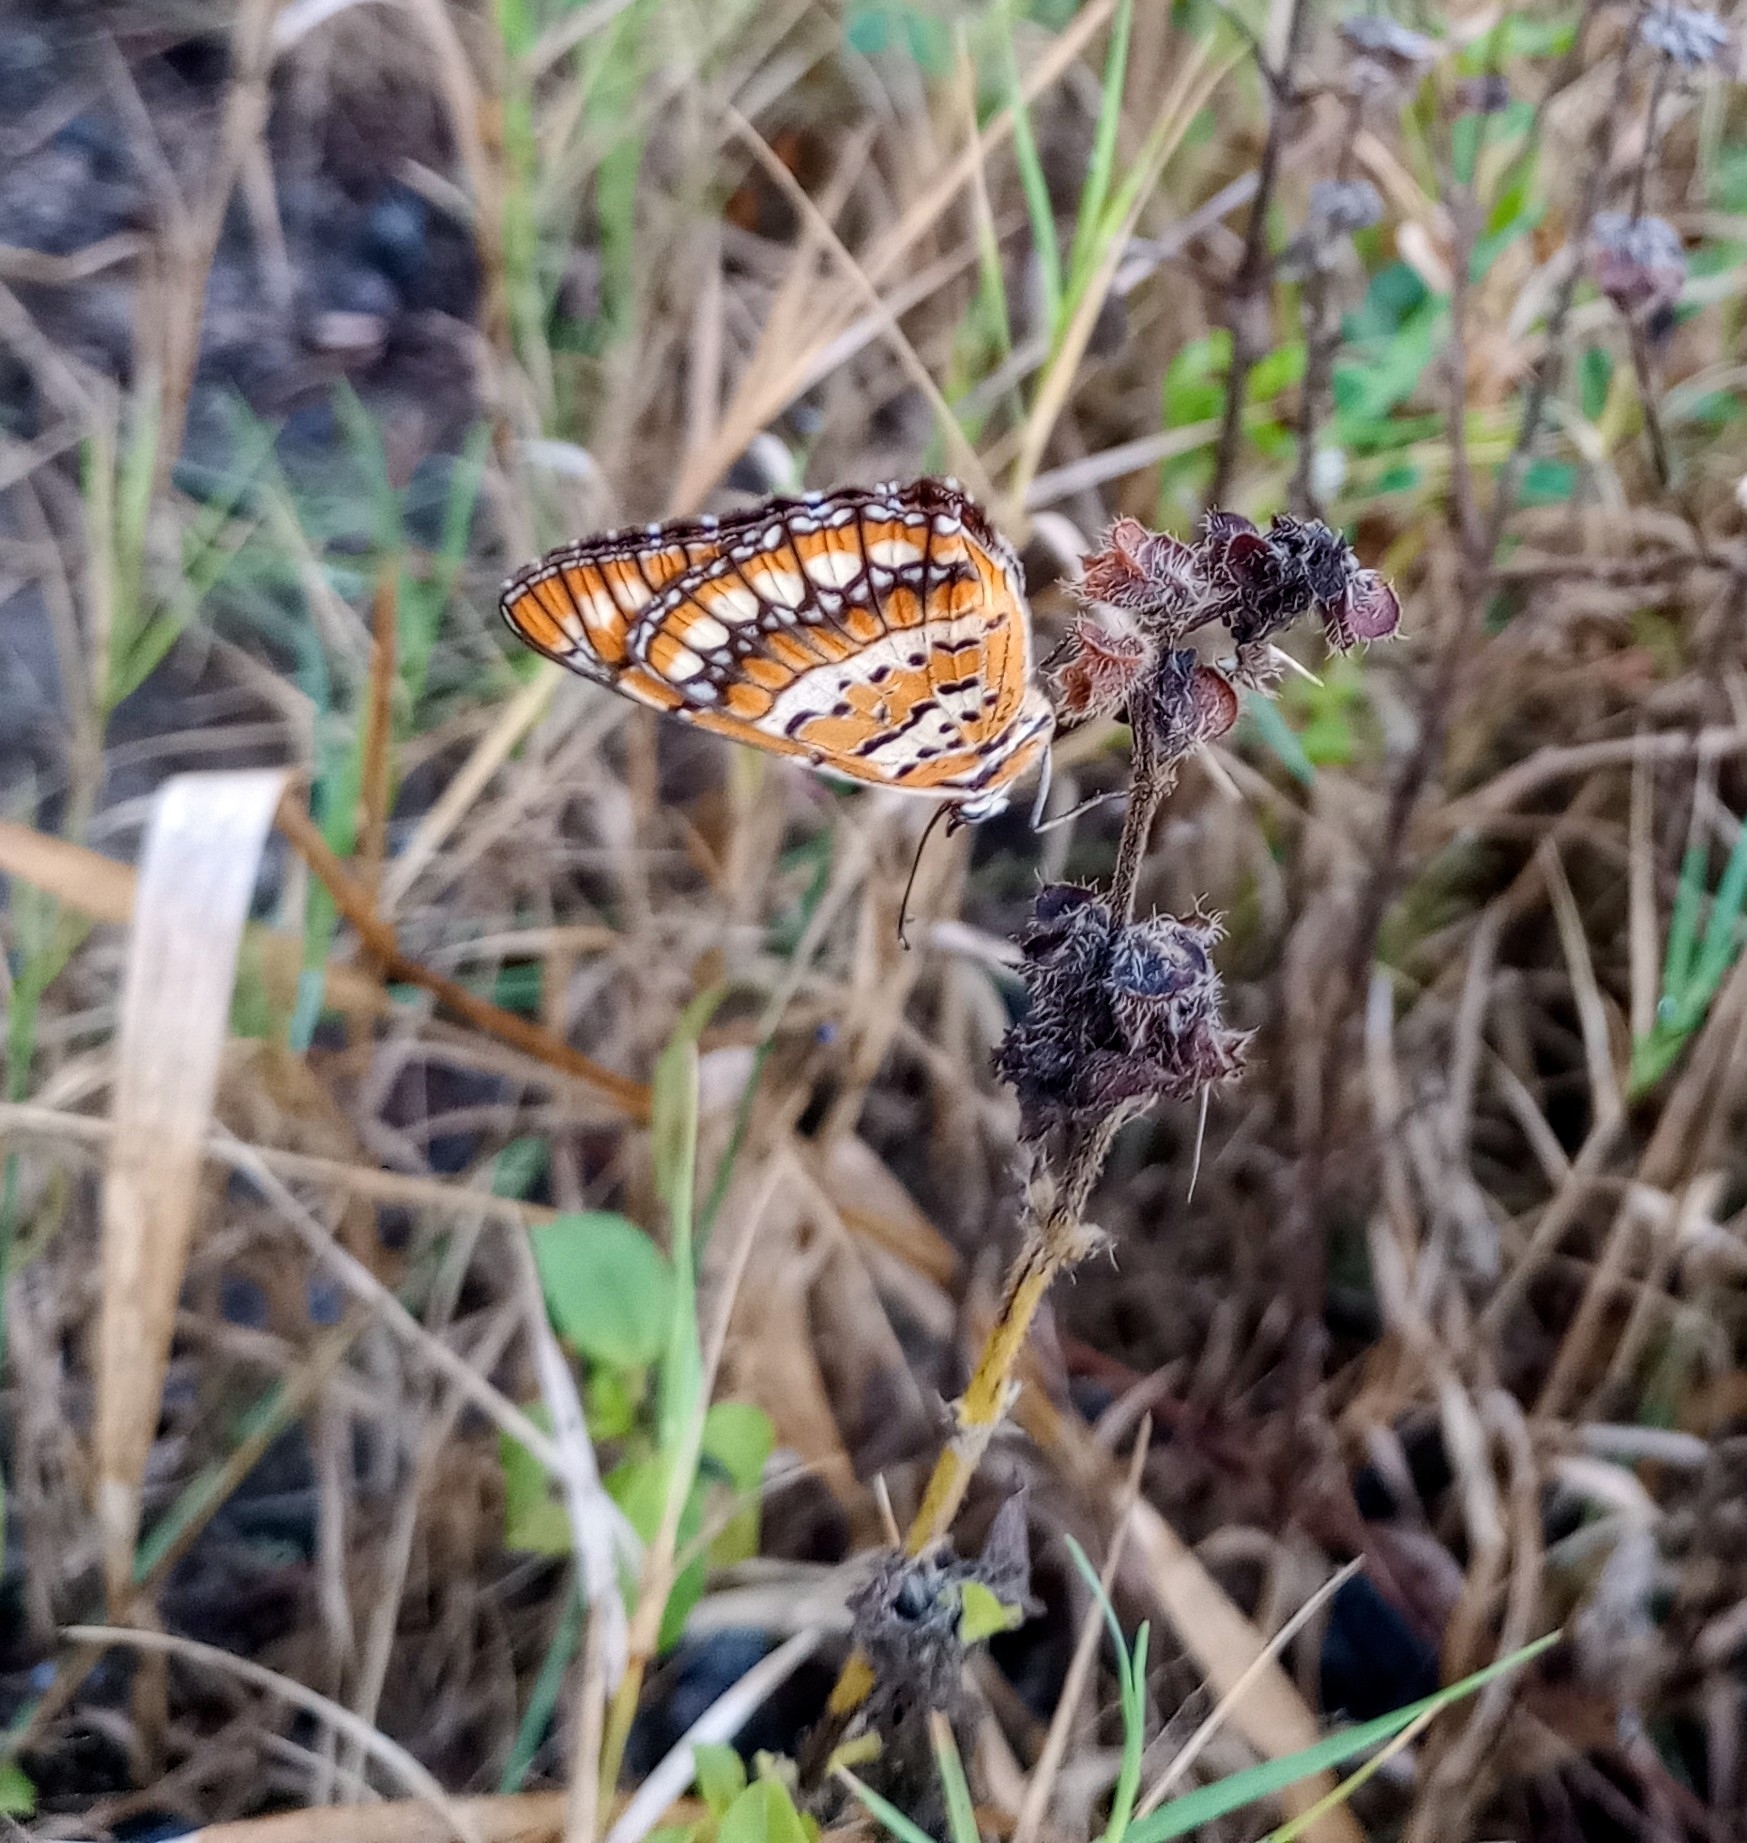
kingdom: Animalia
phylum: Arthropoda
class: Insecta
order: Lepidoptera
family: Nymphalidae
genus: Byblia
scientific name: Byblia ilithyia
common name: Spotted joker
